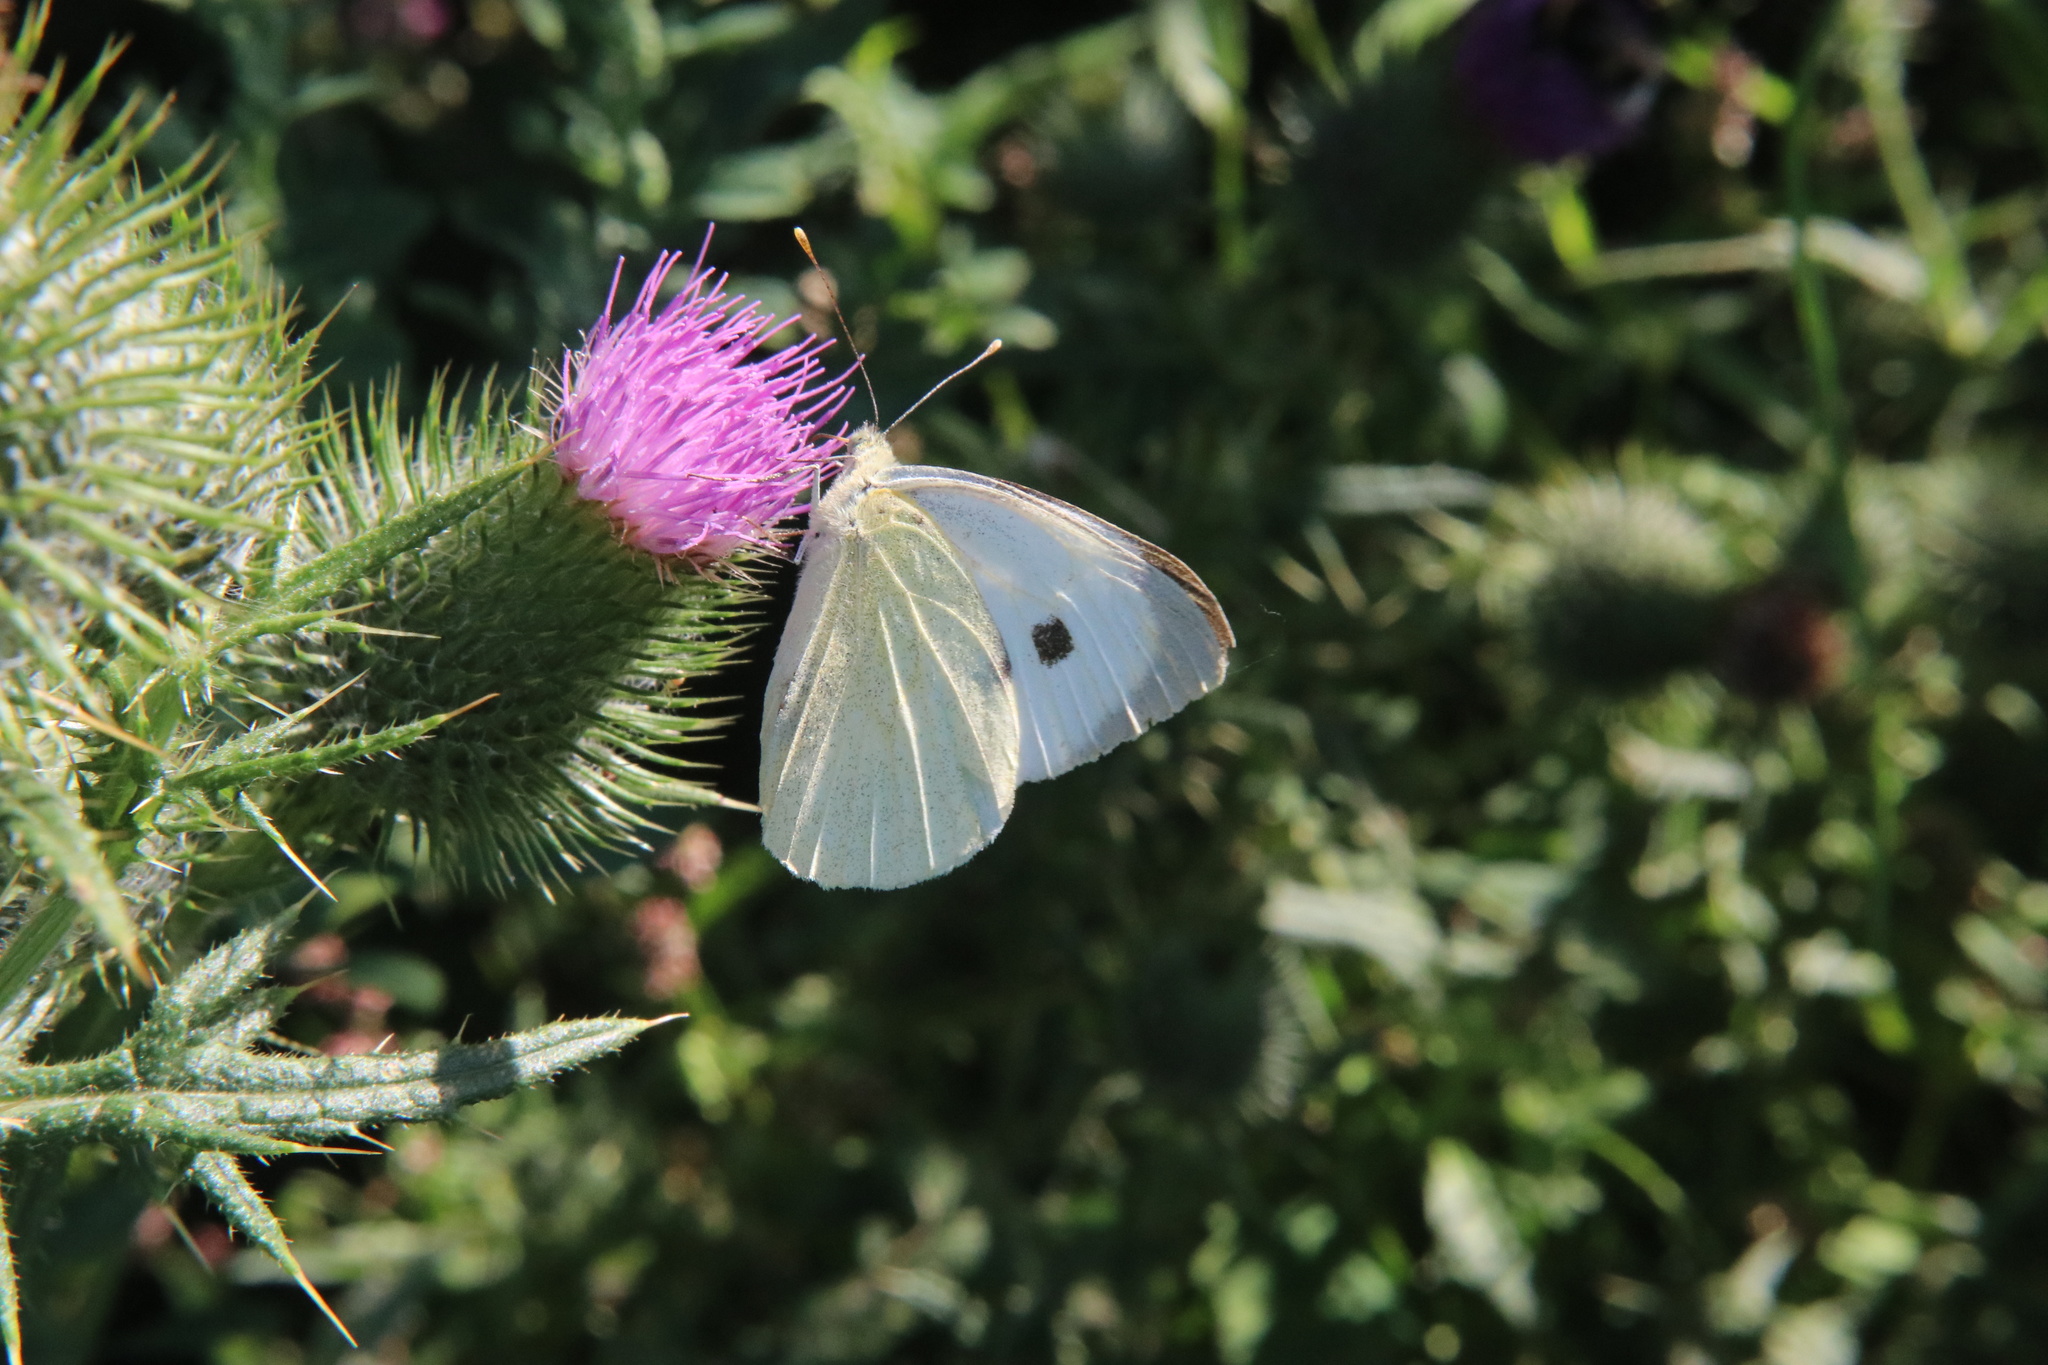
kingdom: Animalia
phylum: Arthropoda
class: Insecta
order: Lepidoptera
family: Pieridae
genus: Pieris
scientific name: Pieris brassicae
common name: Large white
